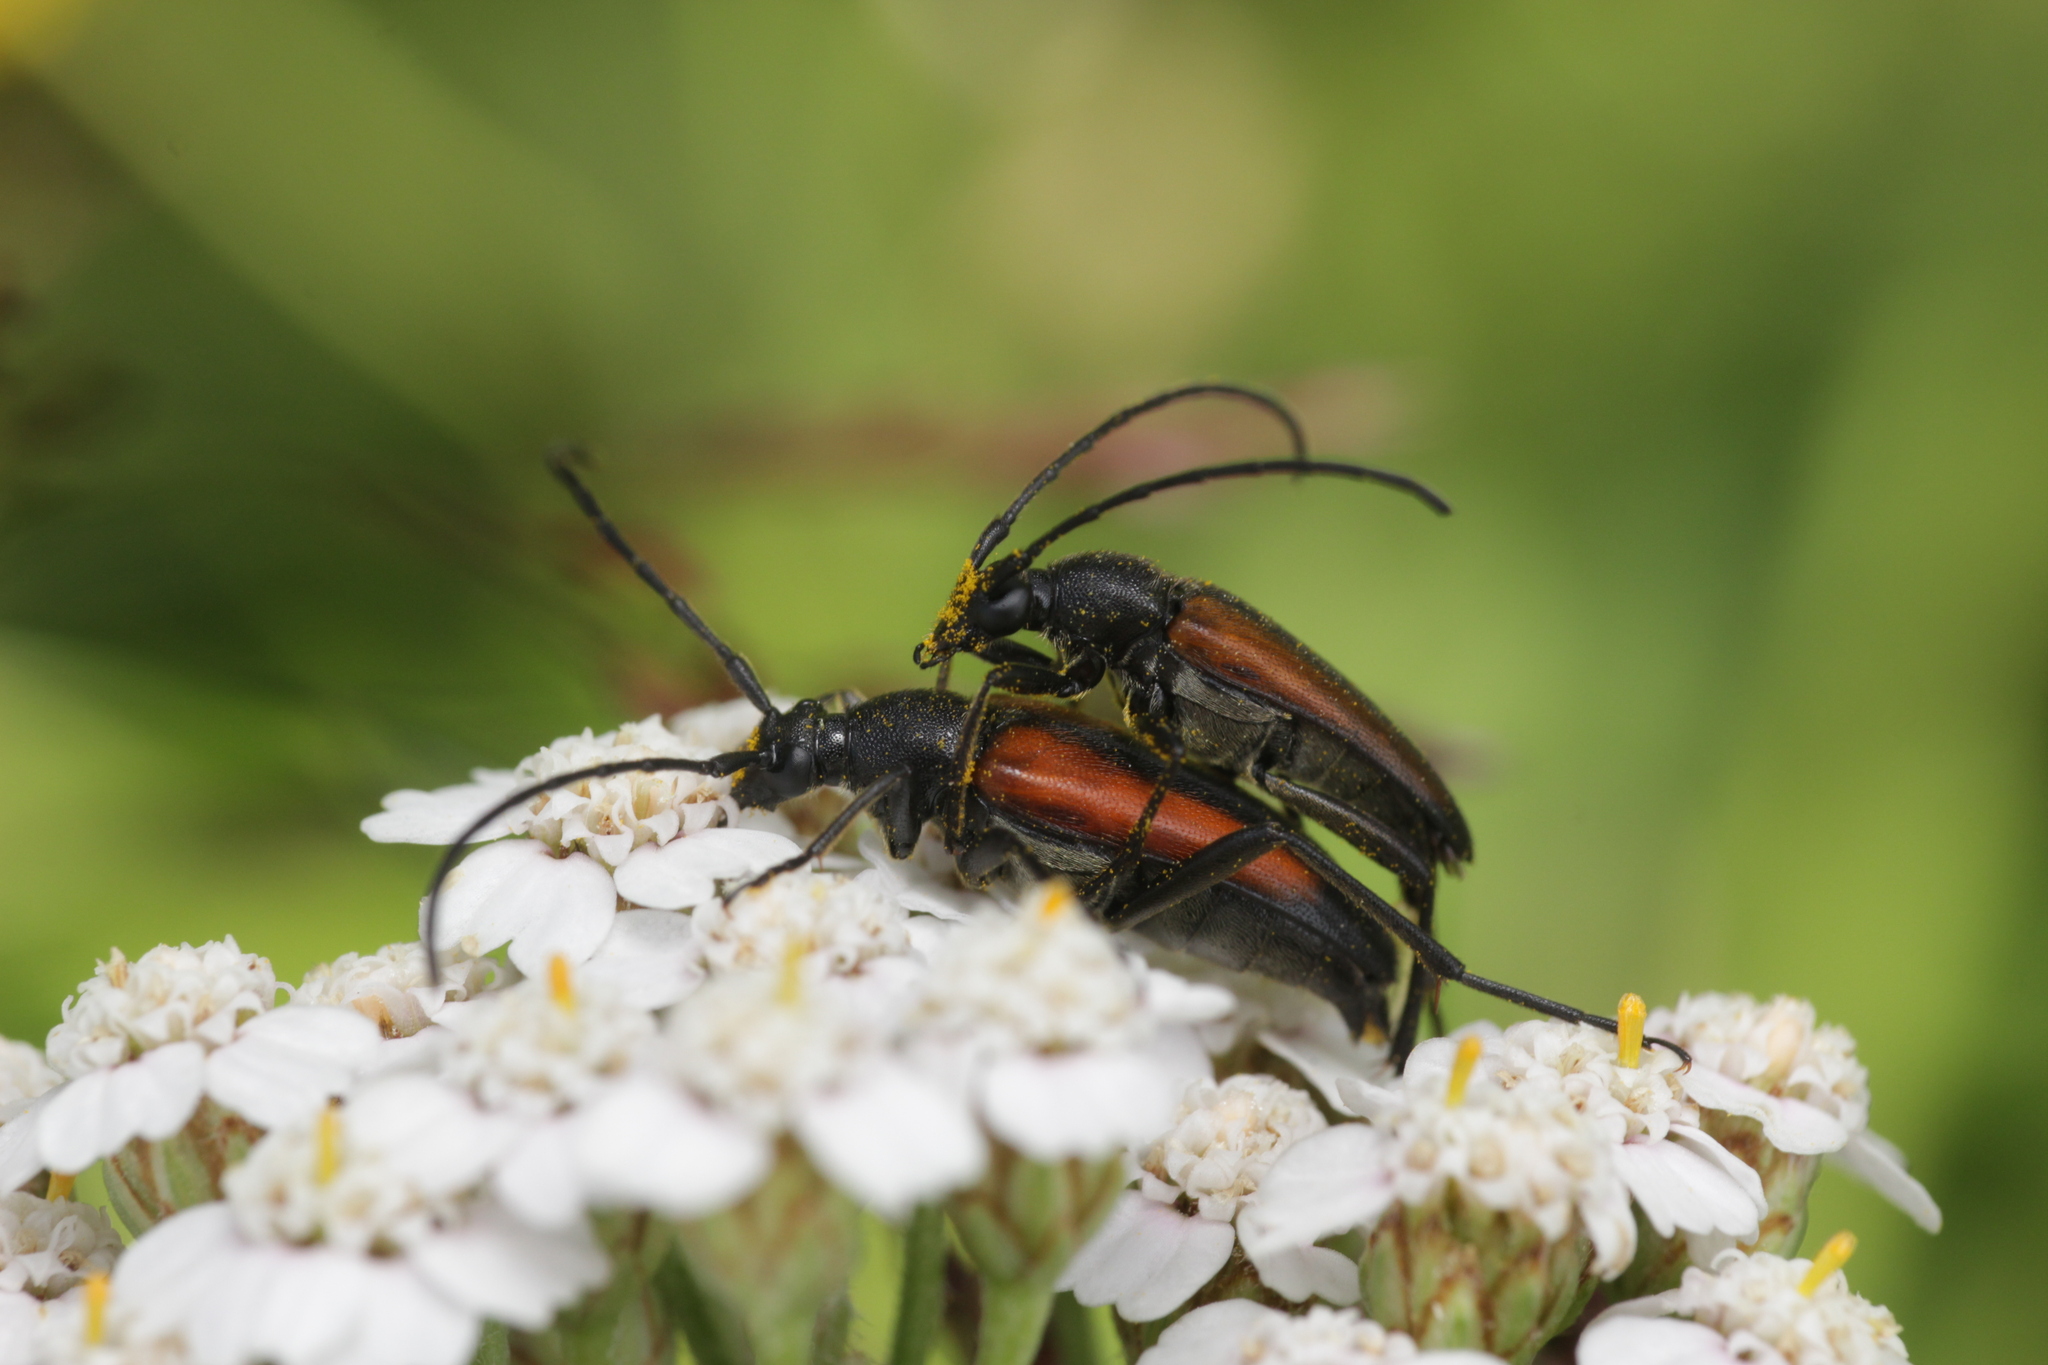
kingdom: Animalia
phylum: Arthropoda
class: Insecta
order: Coleoptera
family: Cerambycidae
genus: Stenurella
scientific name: Stenurella melanura
